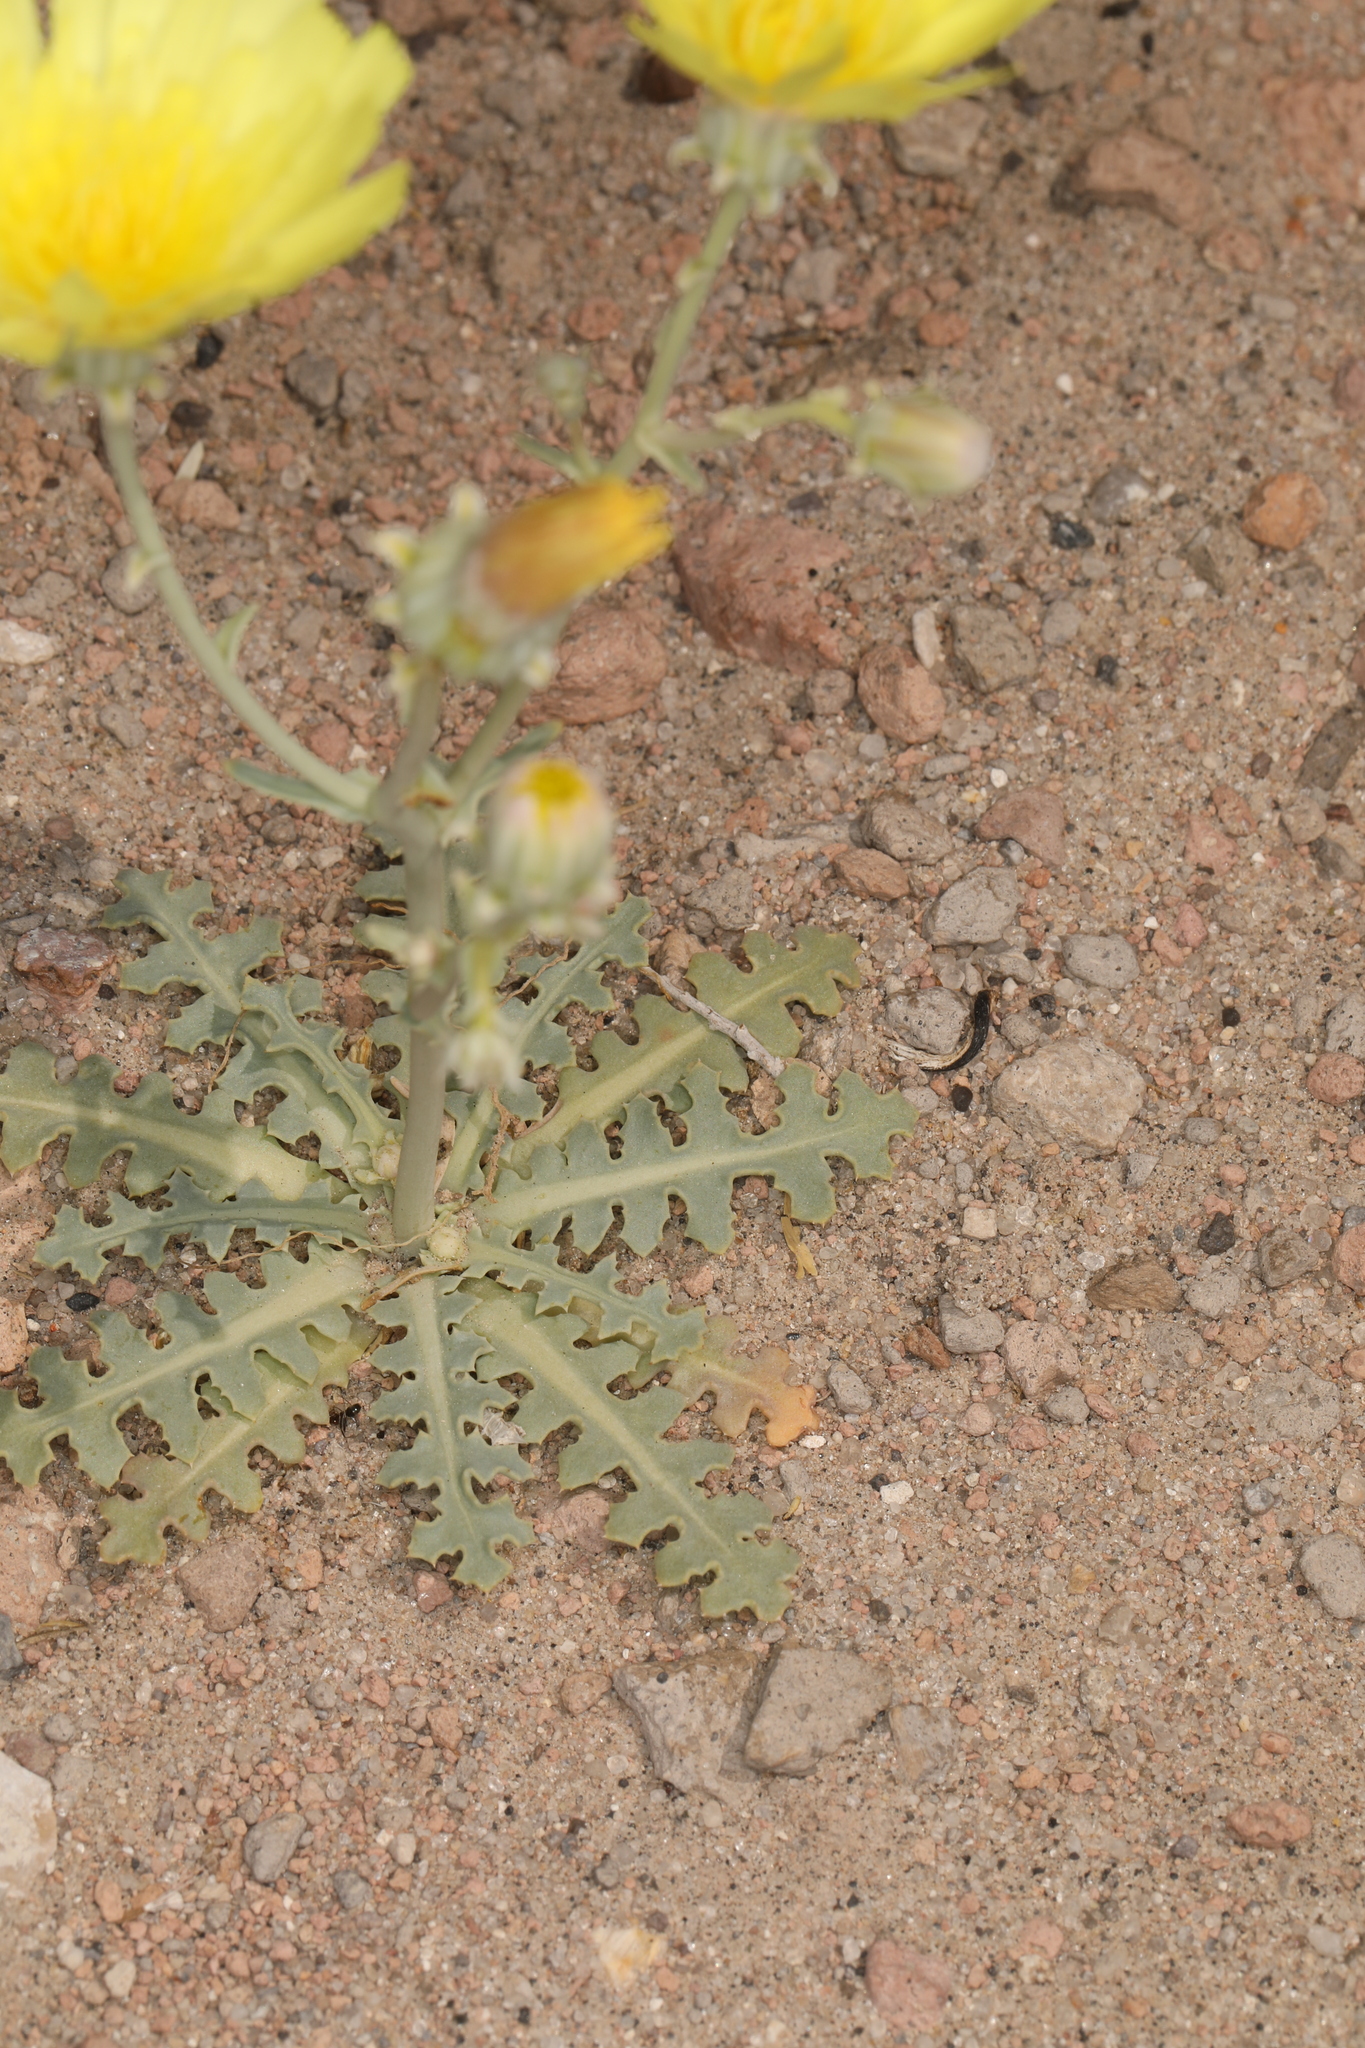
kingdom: Plantae
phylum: Tracheophyta
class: Magnoliopsida
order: Asterales
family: Asteraceae
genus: Malacothrix
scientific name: Malacothrix sonchoides
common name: Sow-thistle desert-dandelion
